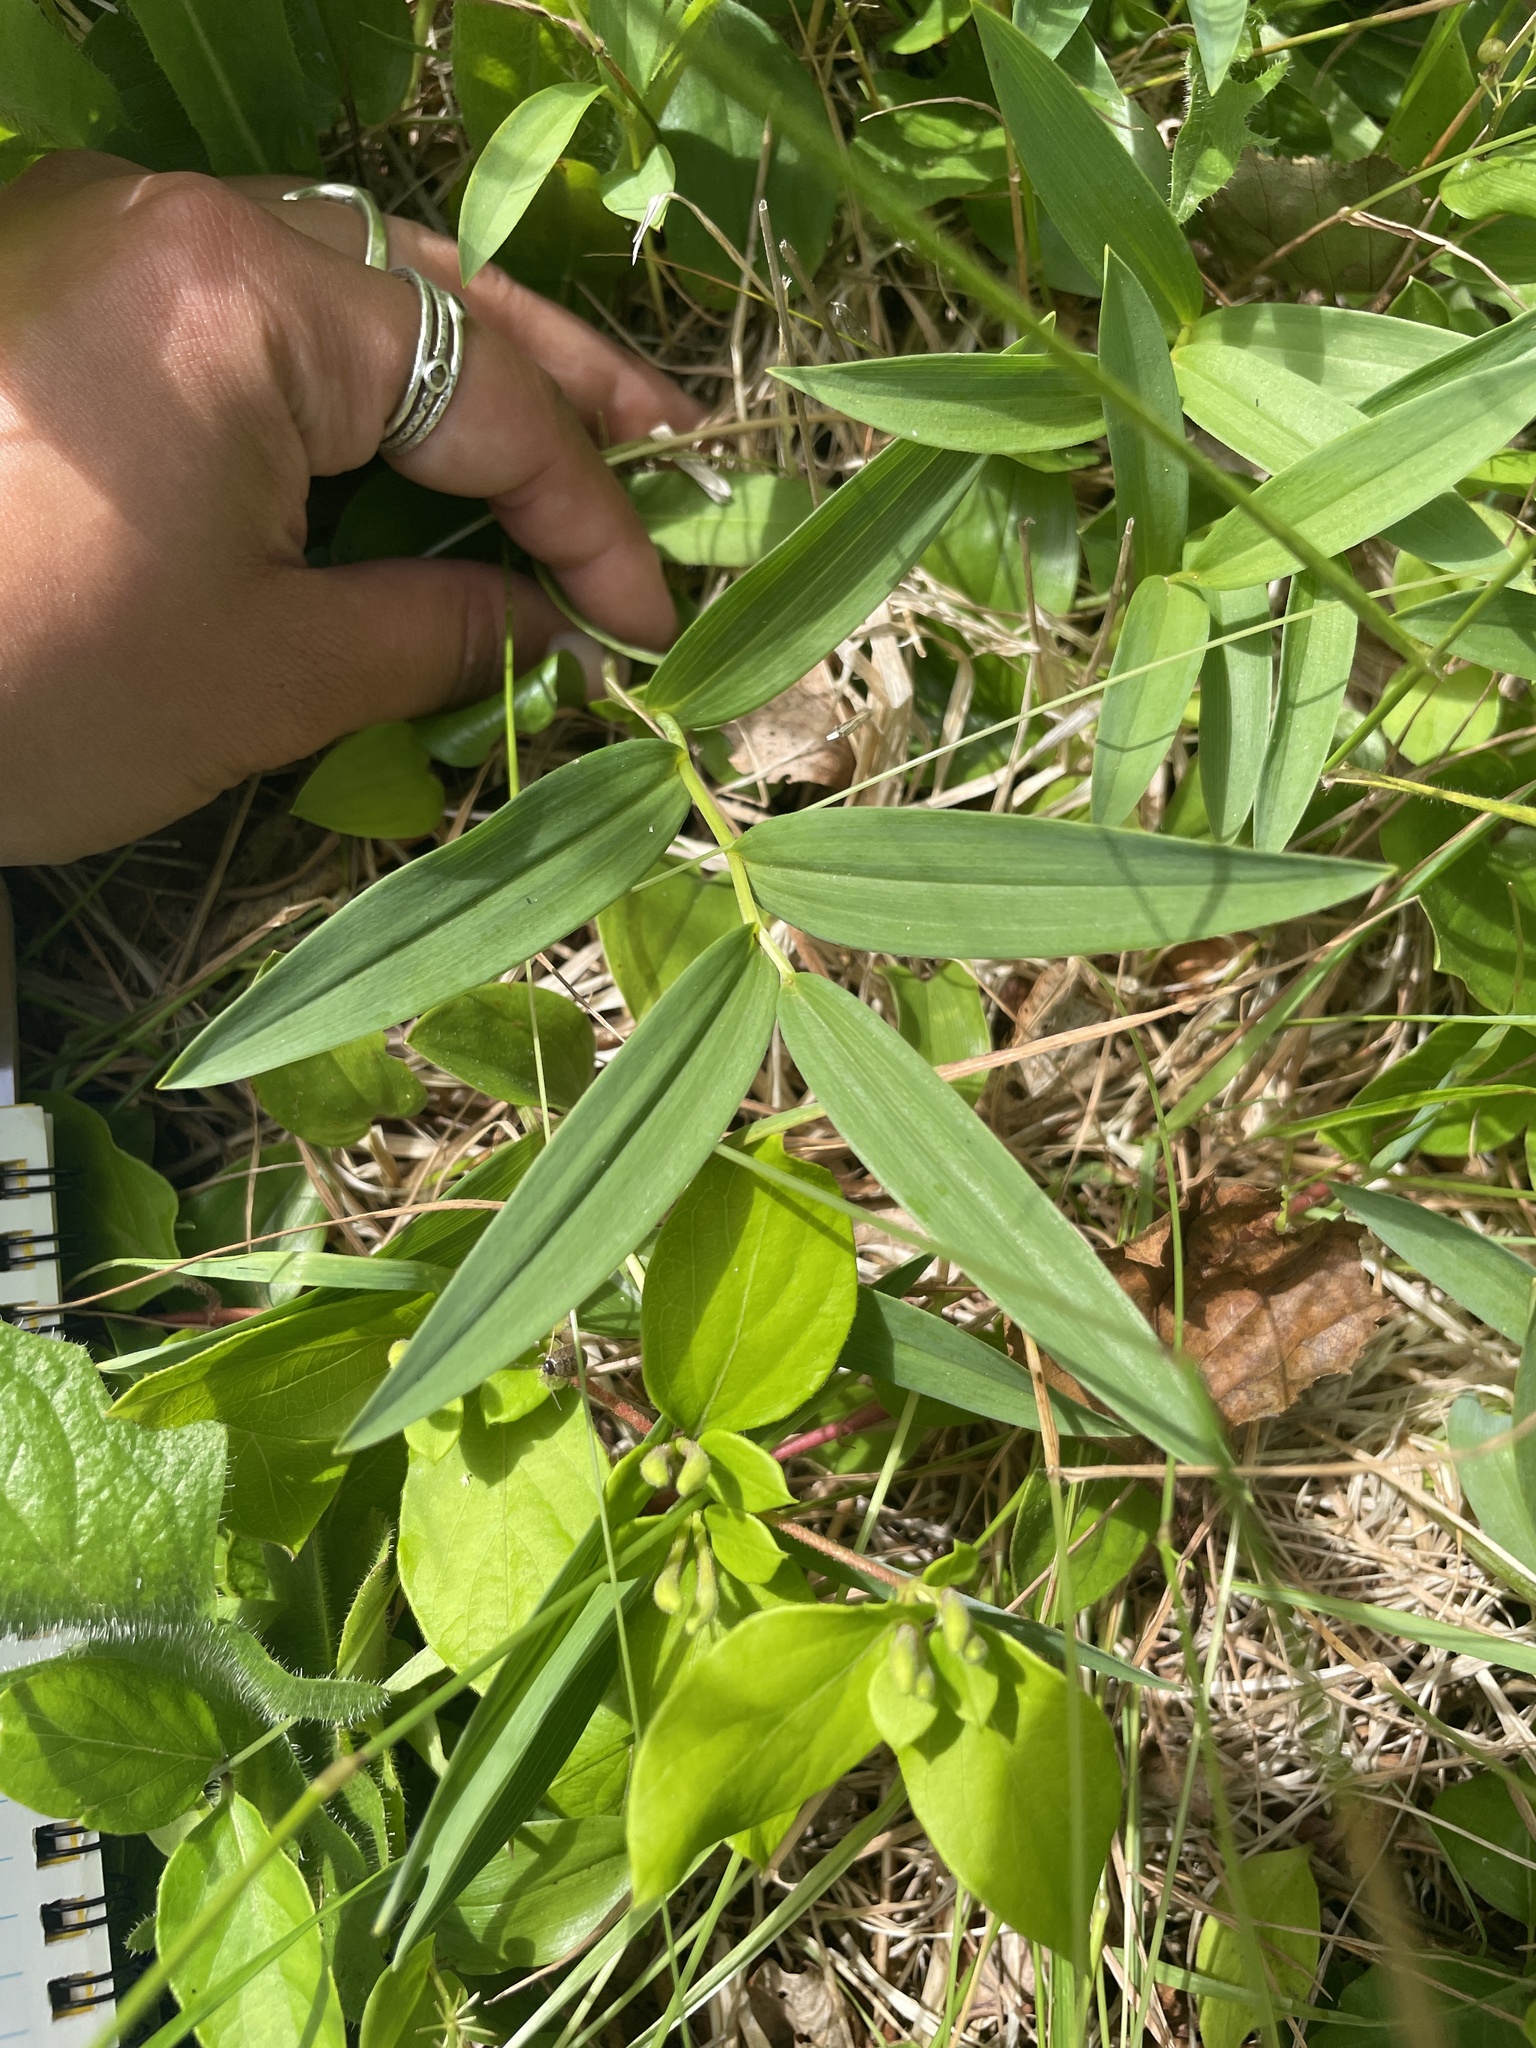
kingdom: Plantae
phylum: Tracheophyta
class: Liliopsida
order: Asparagales
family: Asparagaceae
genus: Maianthemum
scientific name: Maianthemum stellatum
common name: Little false solomon's seal
